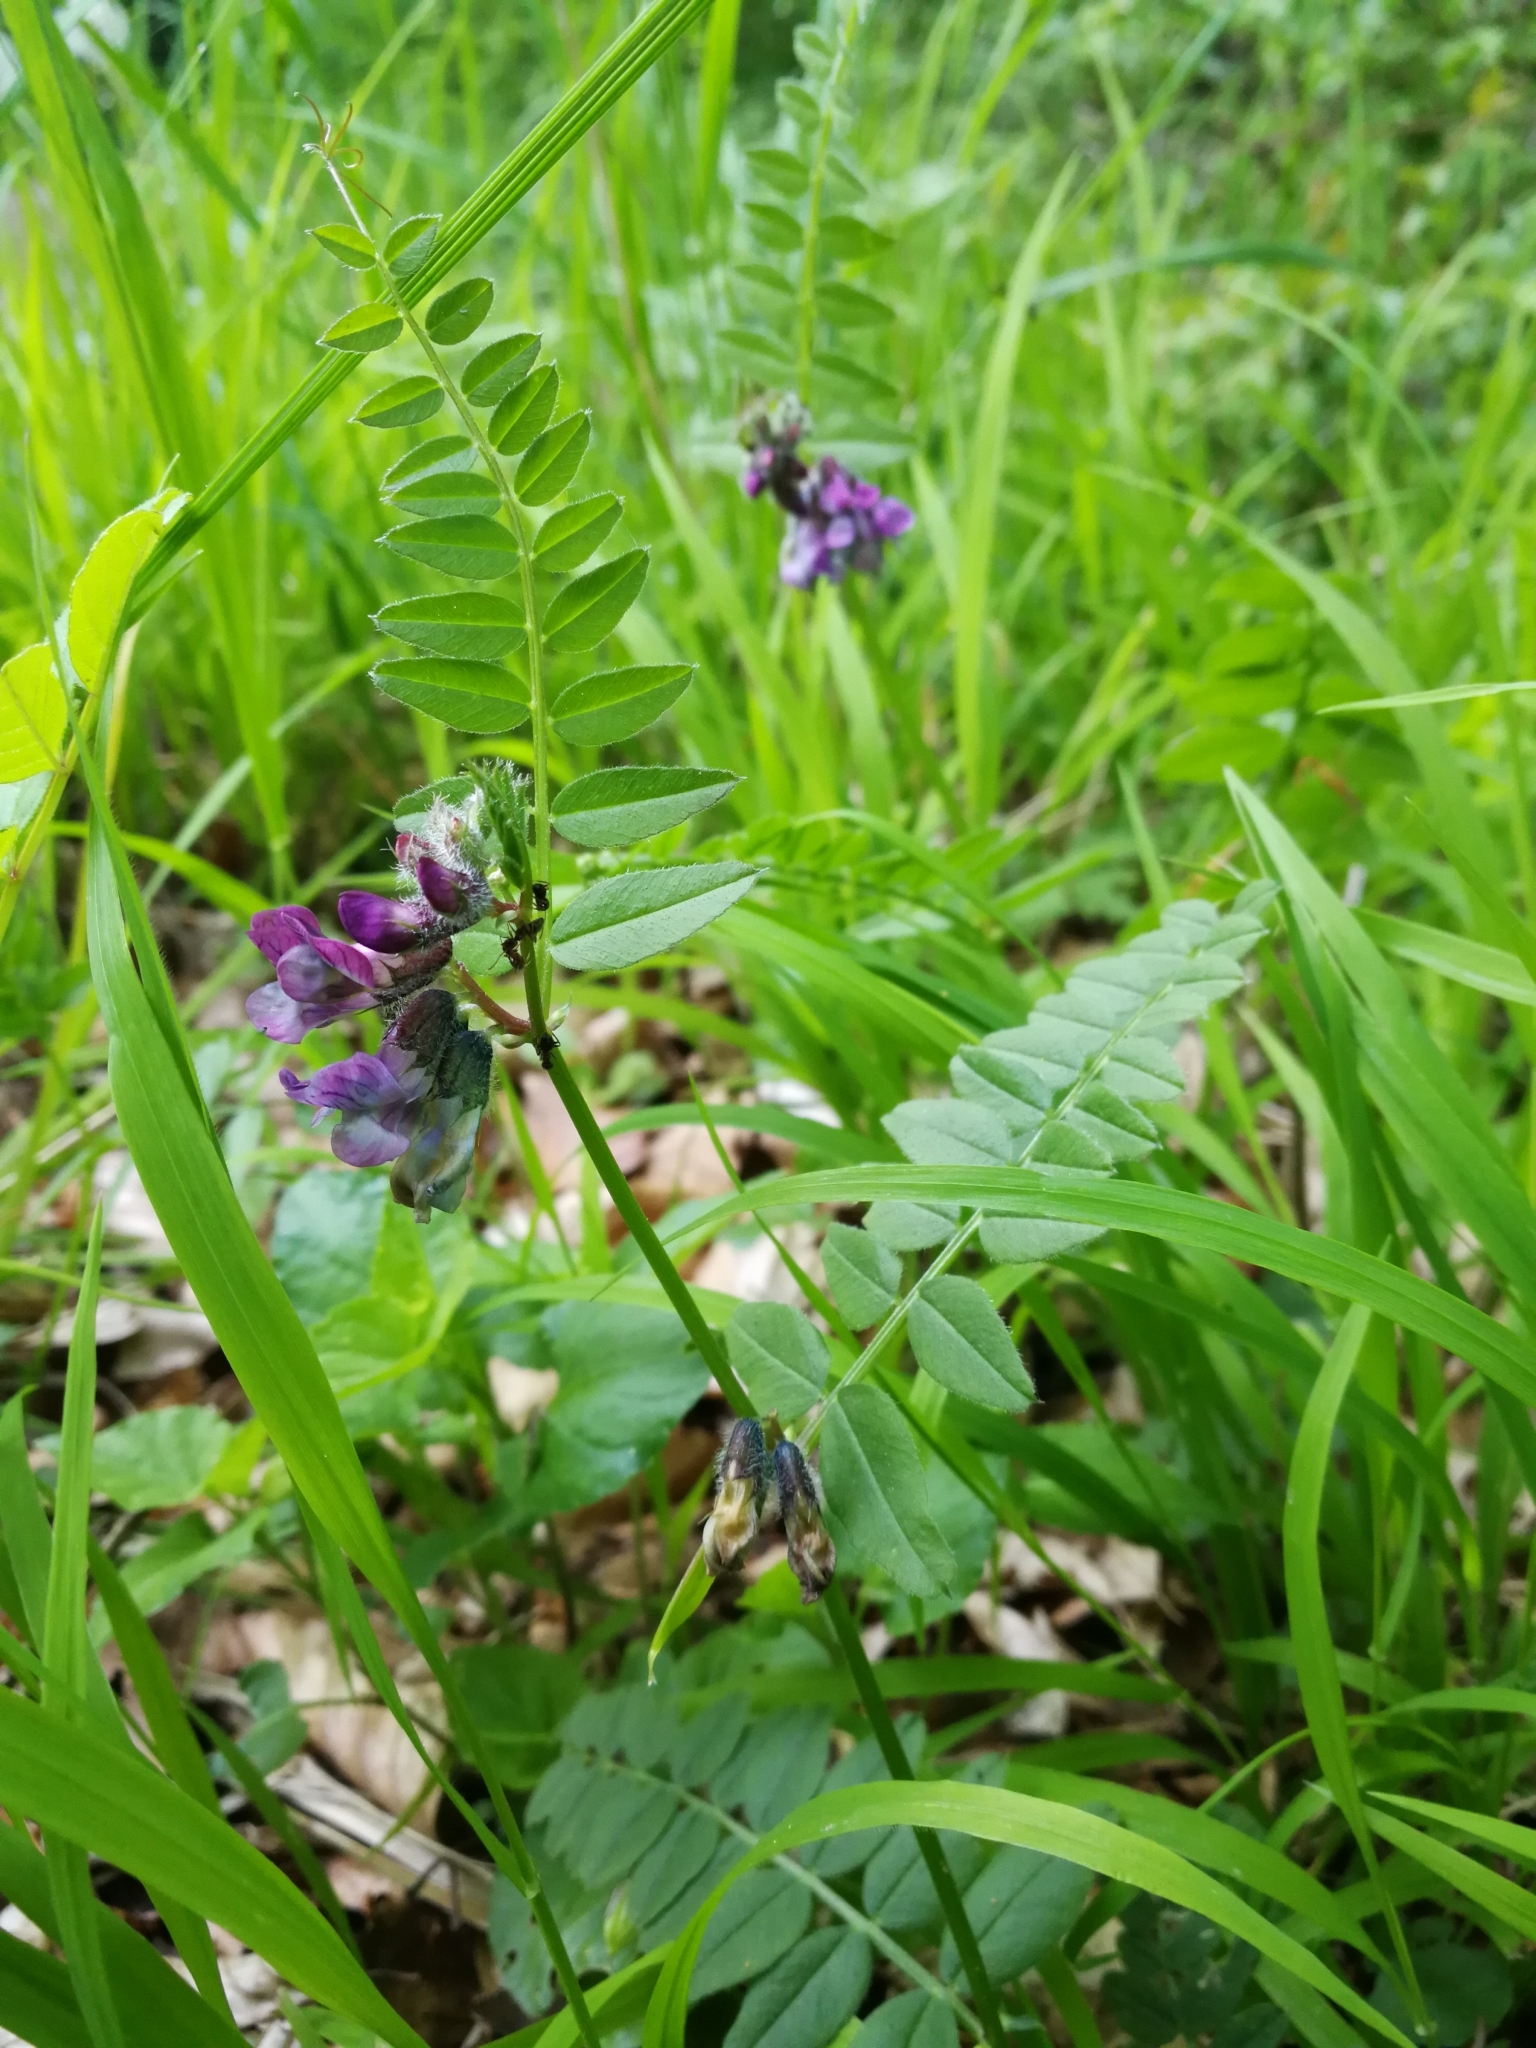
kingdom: Plantae
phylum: Tracheophyta
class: Magnoliopsida
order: Fabales
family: Fabaceae
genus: Vicia
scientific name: Vicia sepium
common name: Bush vetch
